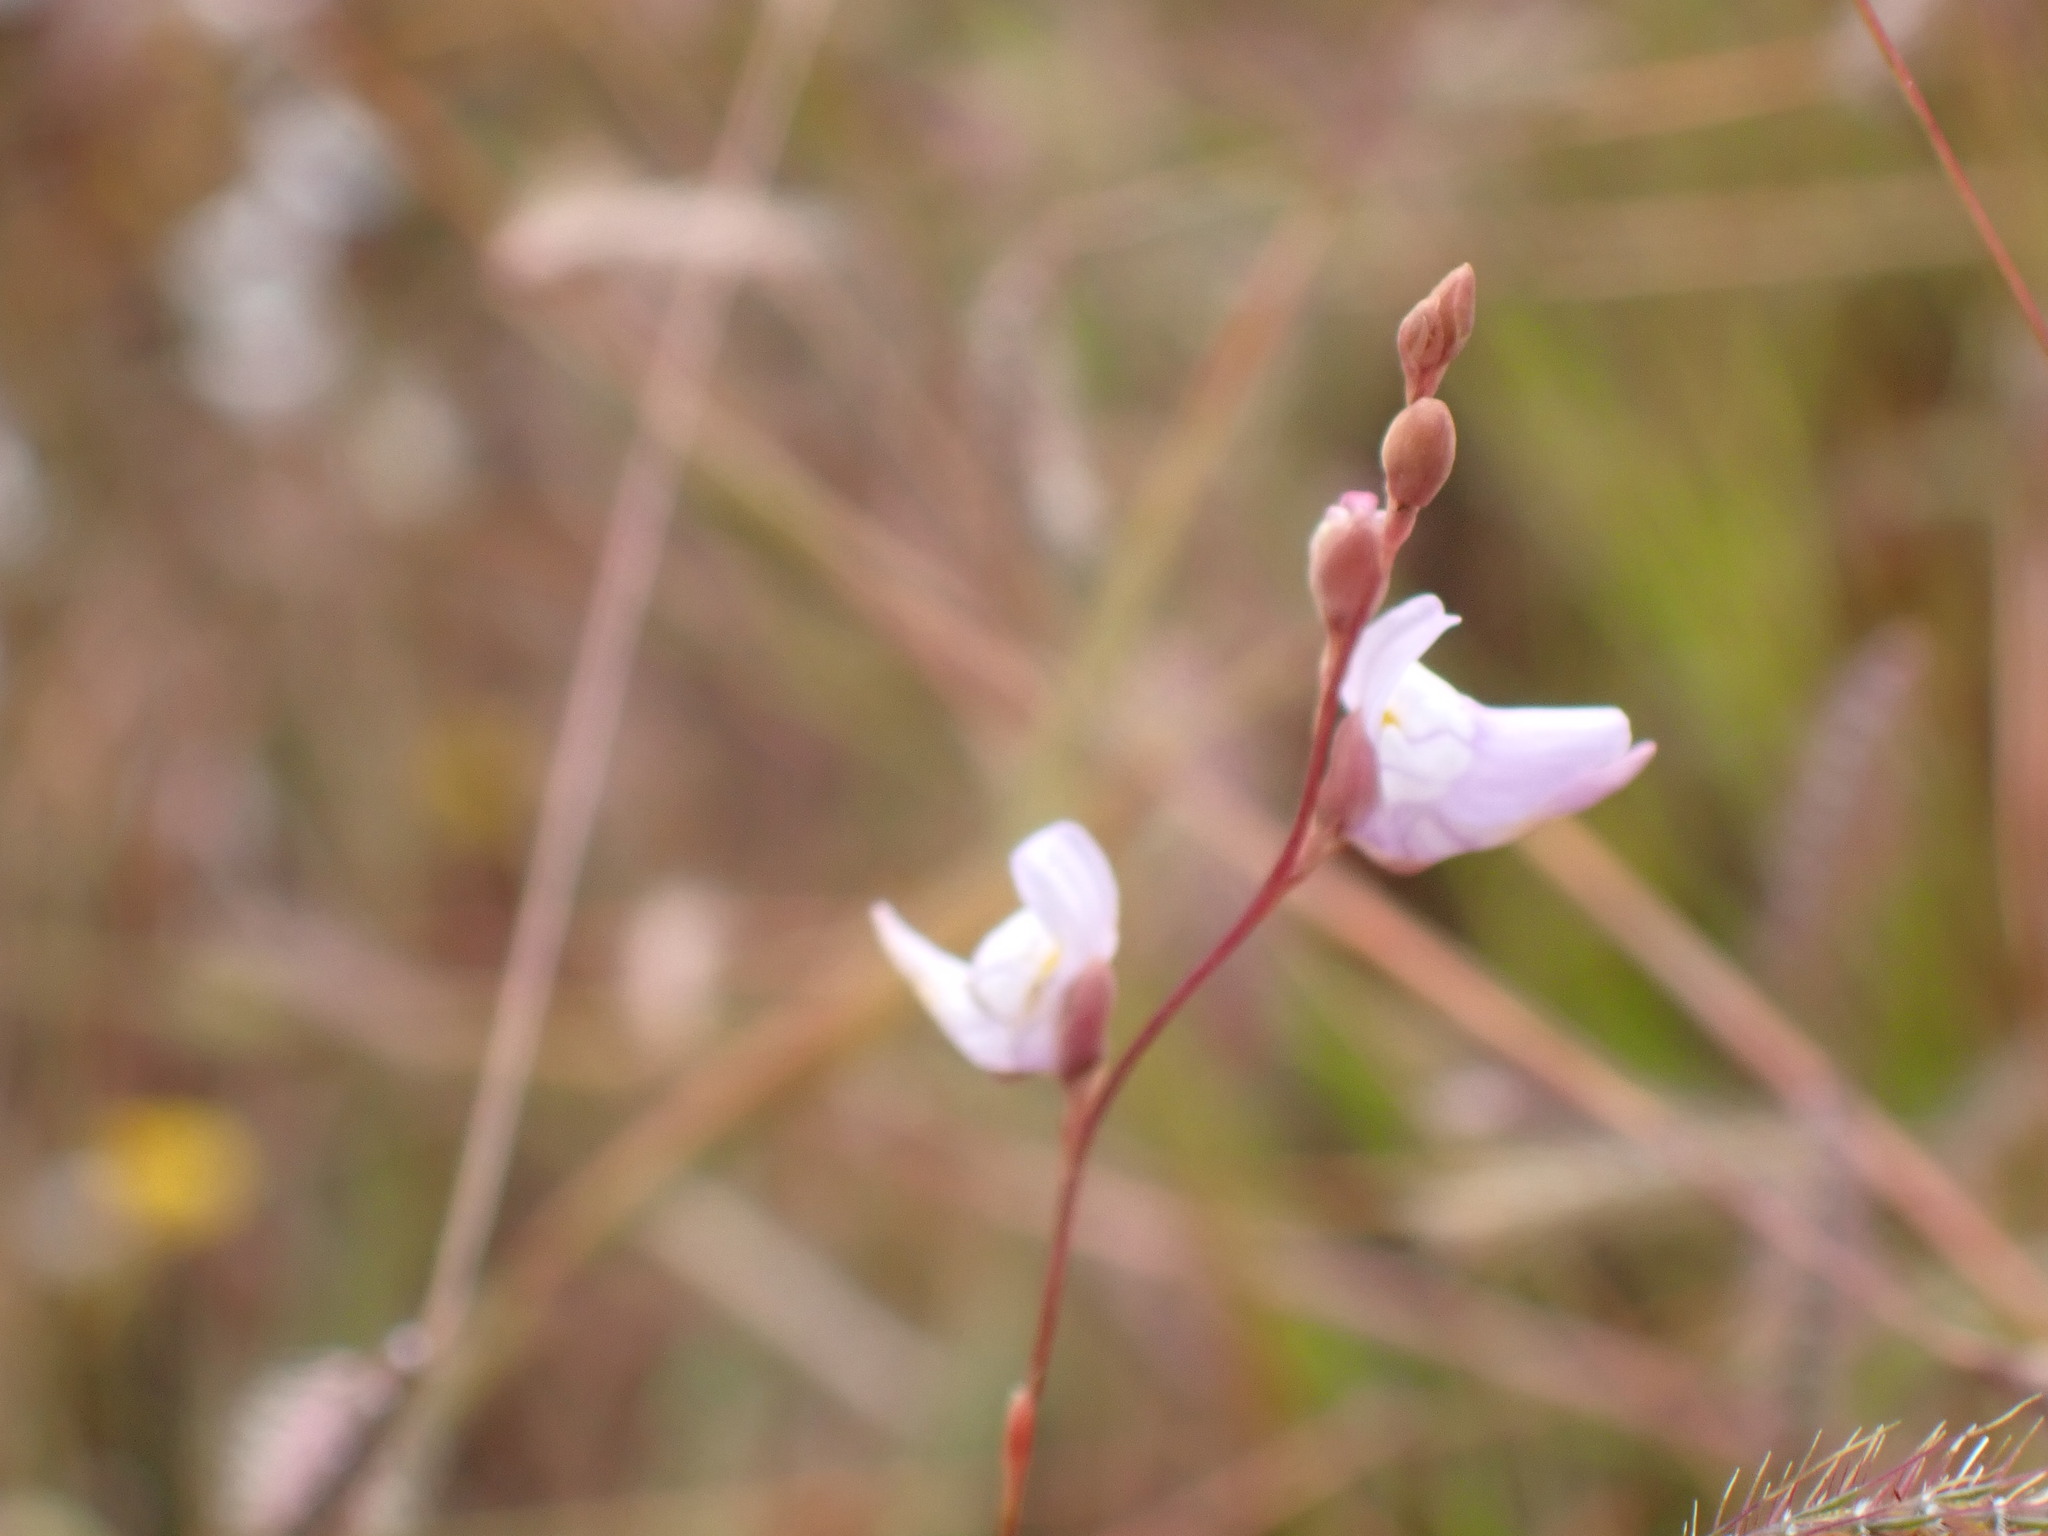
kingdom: Plantae
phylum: Tracheophyta
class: Magnoliopsida
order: Lamiales
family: Lentibulariaceae
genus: Utricularia
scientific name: Utricularia caerulea
